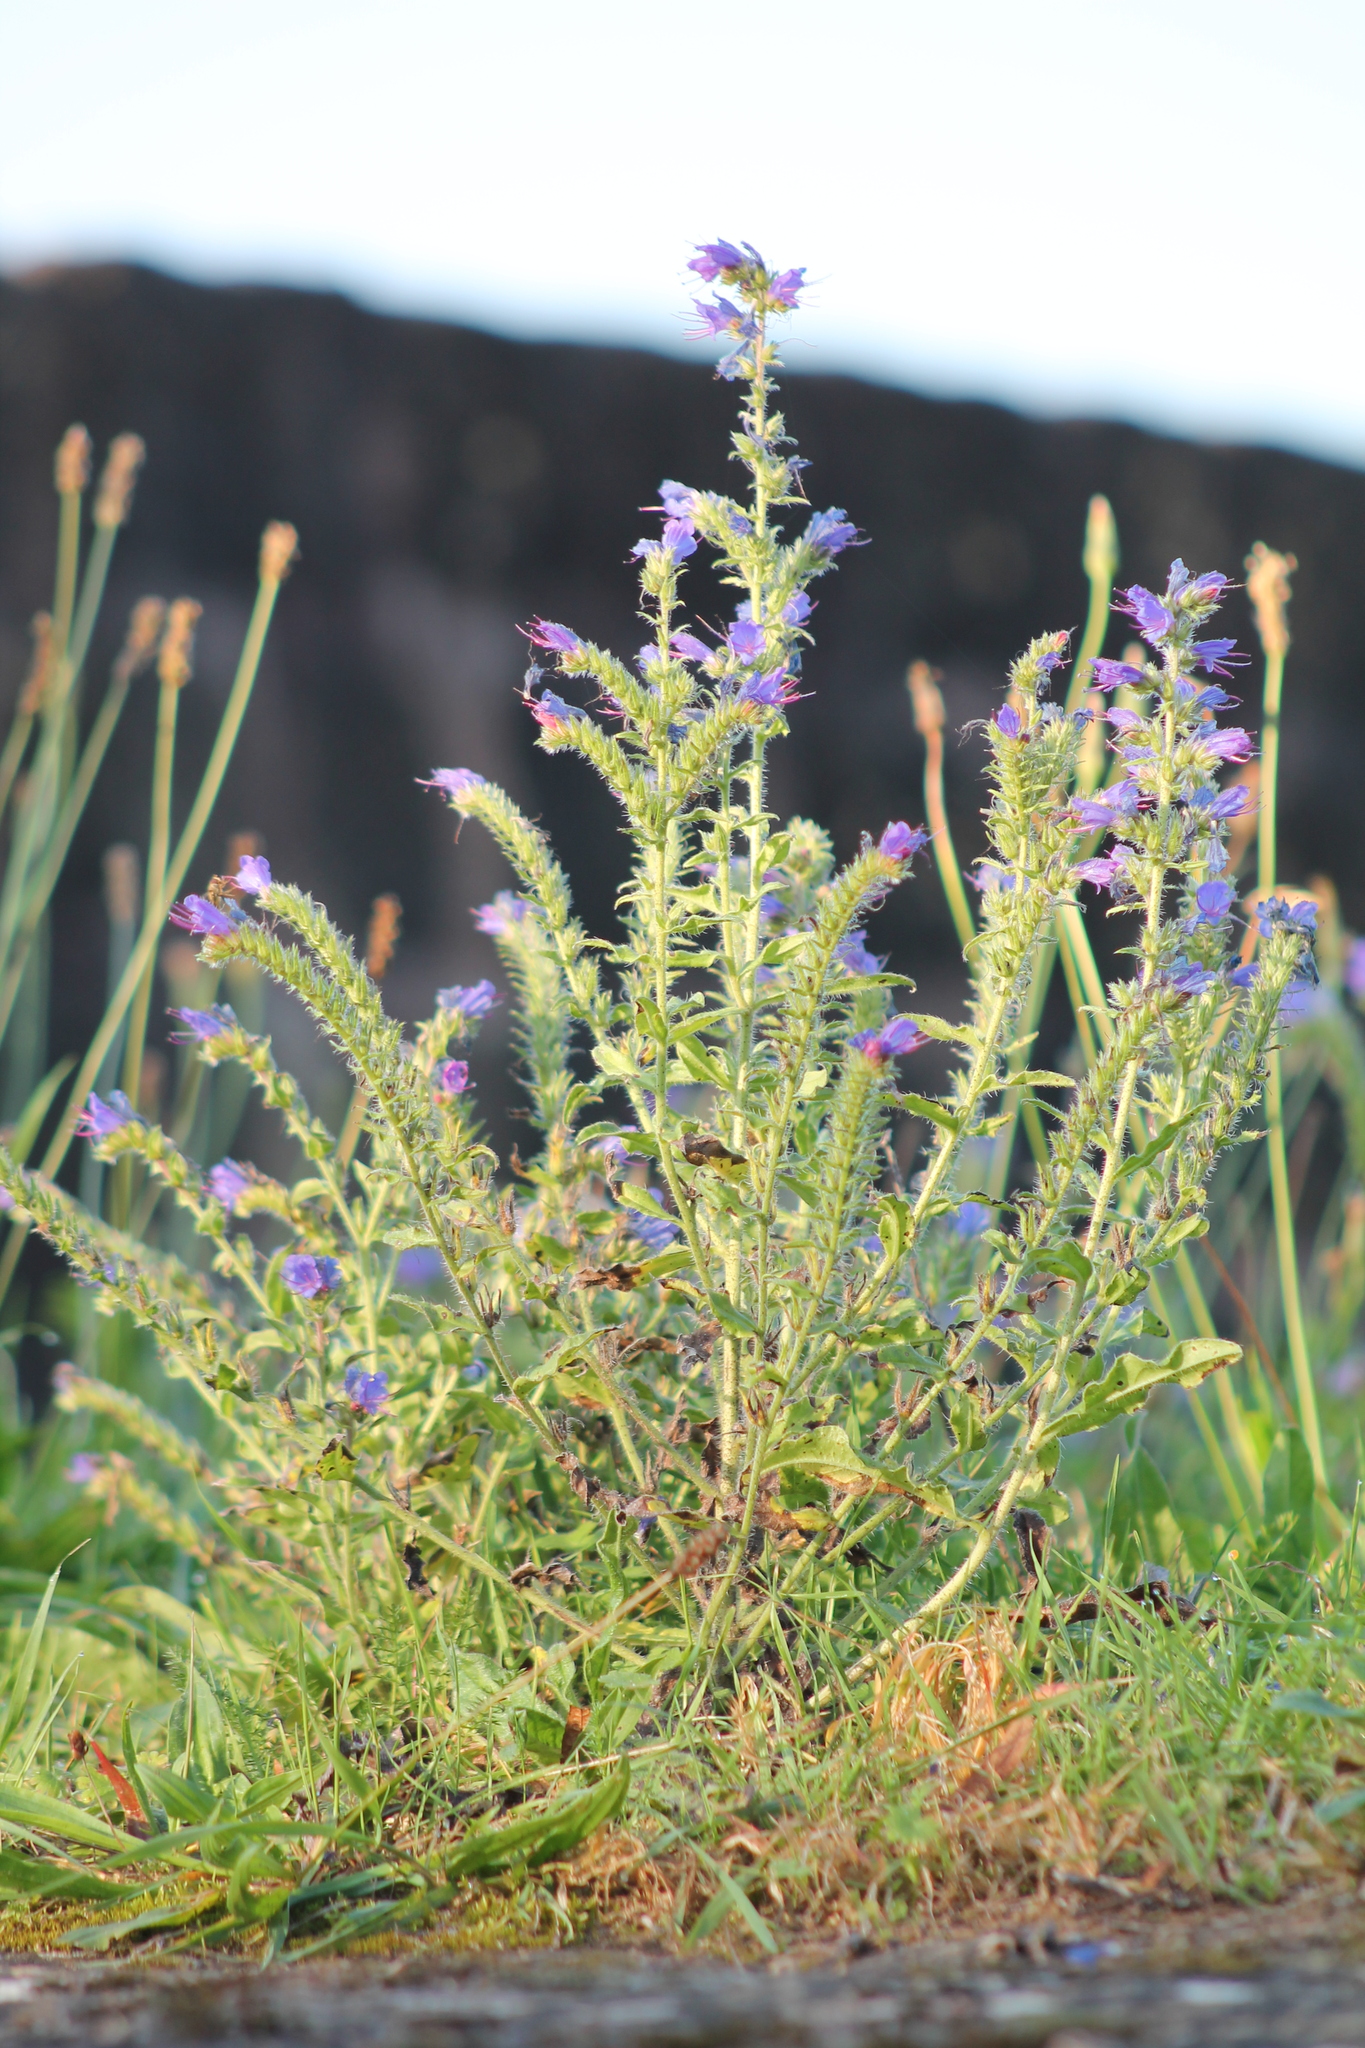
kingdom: Plantae
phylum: Tracheophyta
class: Magnoliopsida
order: Boraginales
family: Boraginaceae
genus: Echium
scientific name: Echium vulgare
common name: Common viper's bugloss
